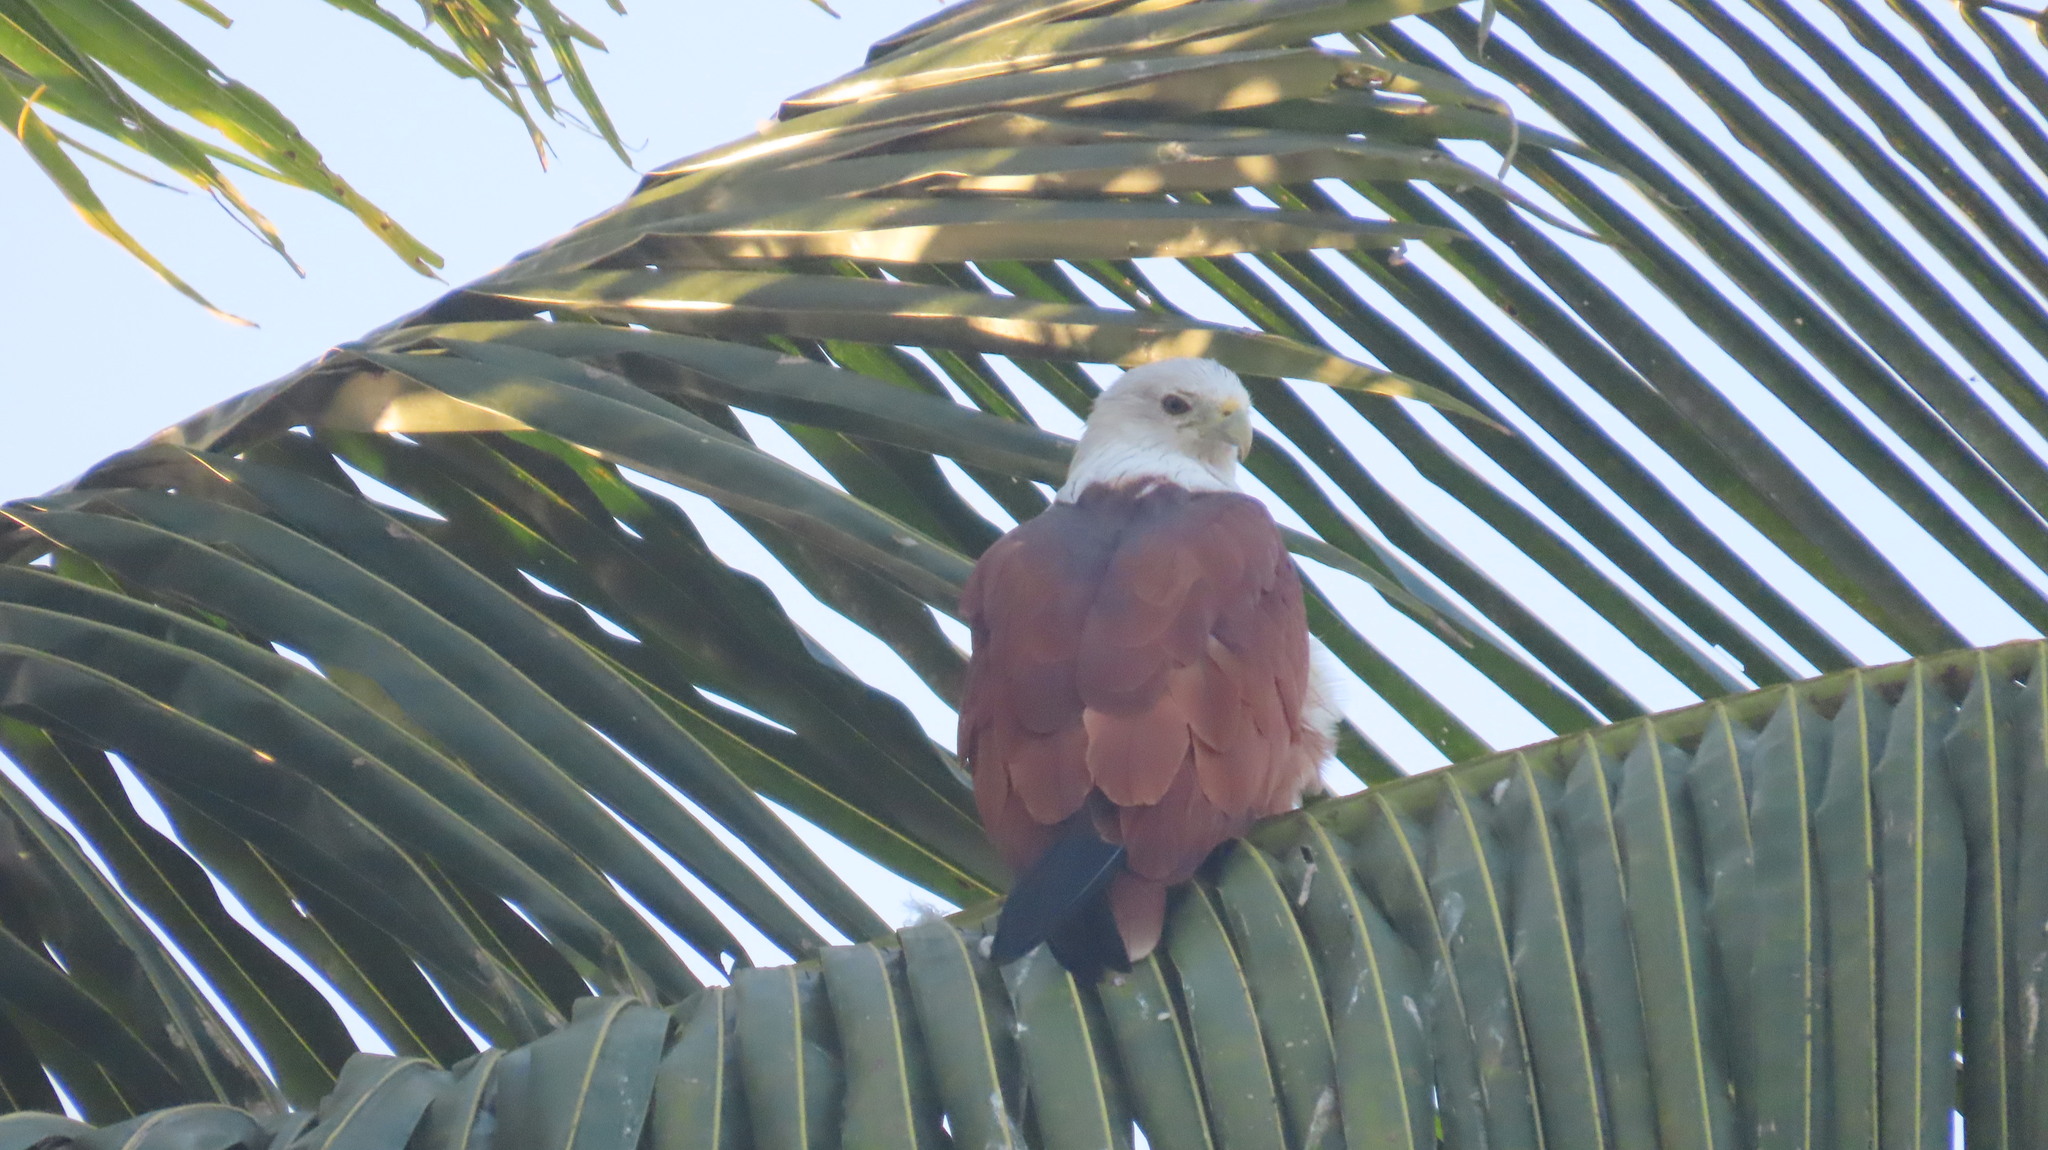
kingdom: Animalia
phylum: Chordata
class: Aves
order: Accipitriformes
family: Accipitridae
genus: Haliastur
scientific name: Haliastur indus
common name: Brahminy kite
